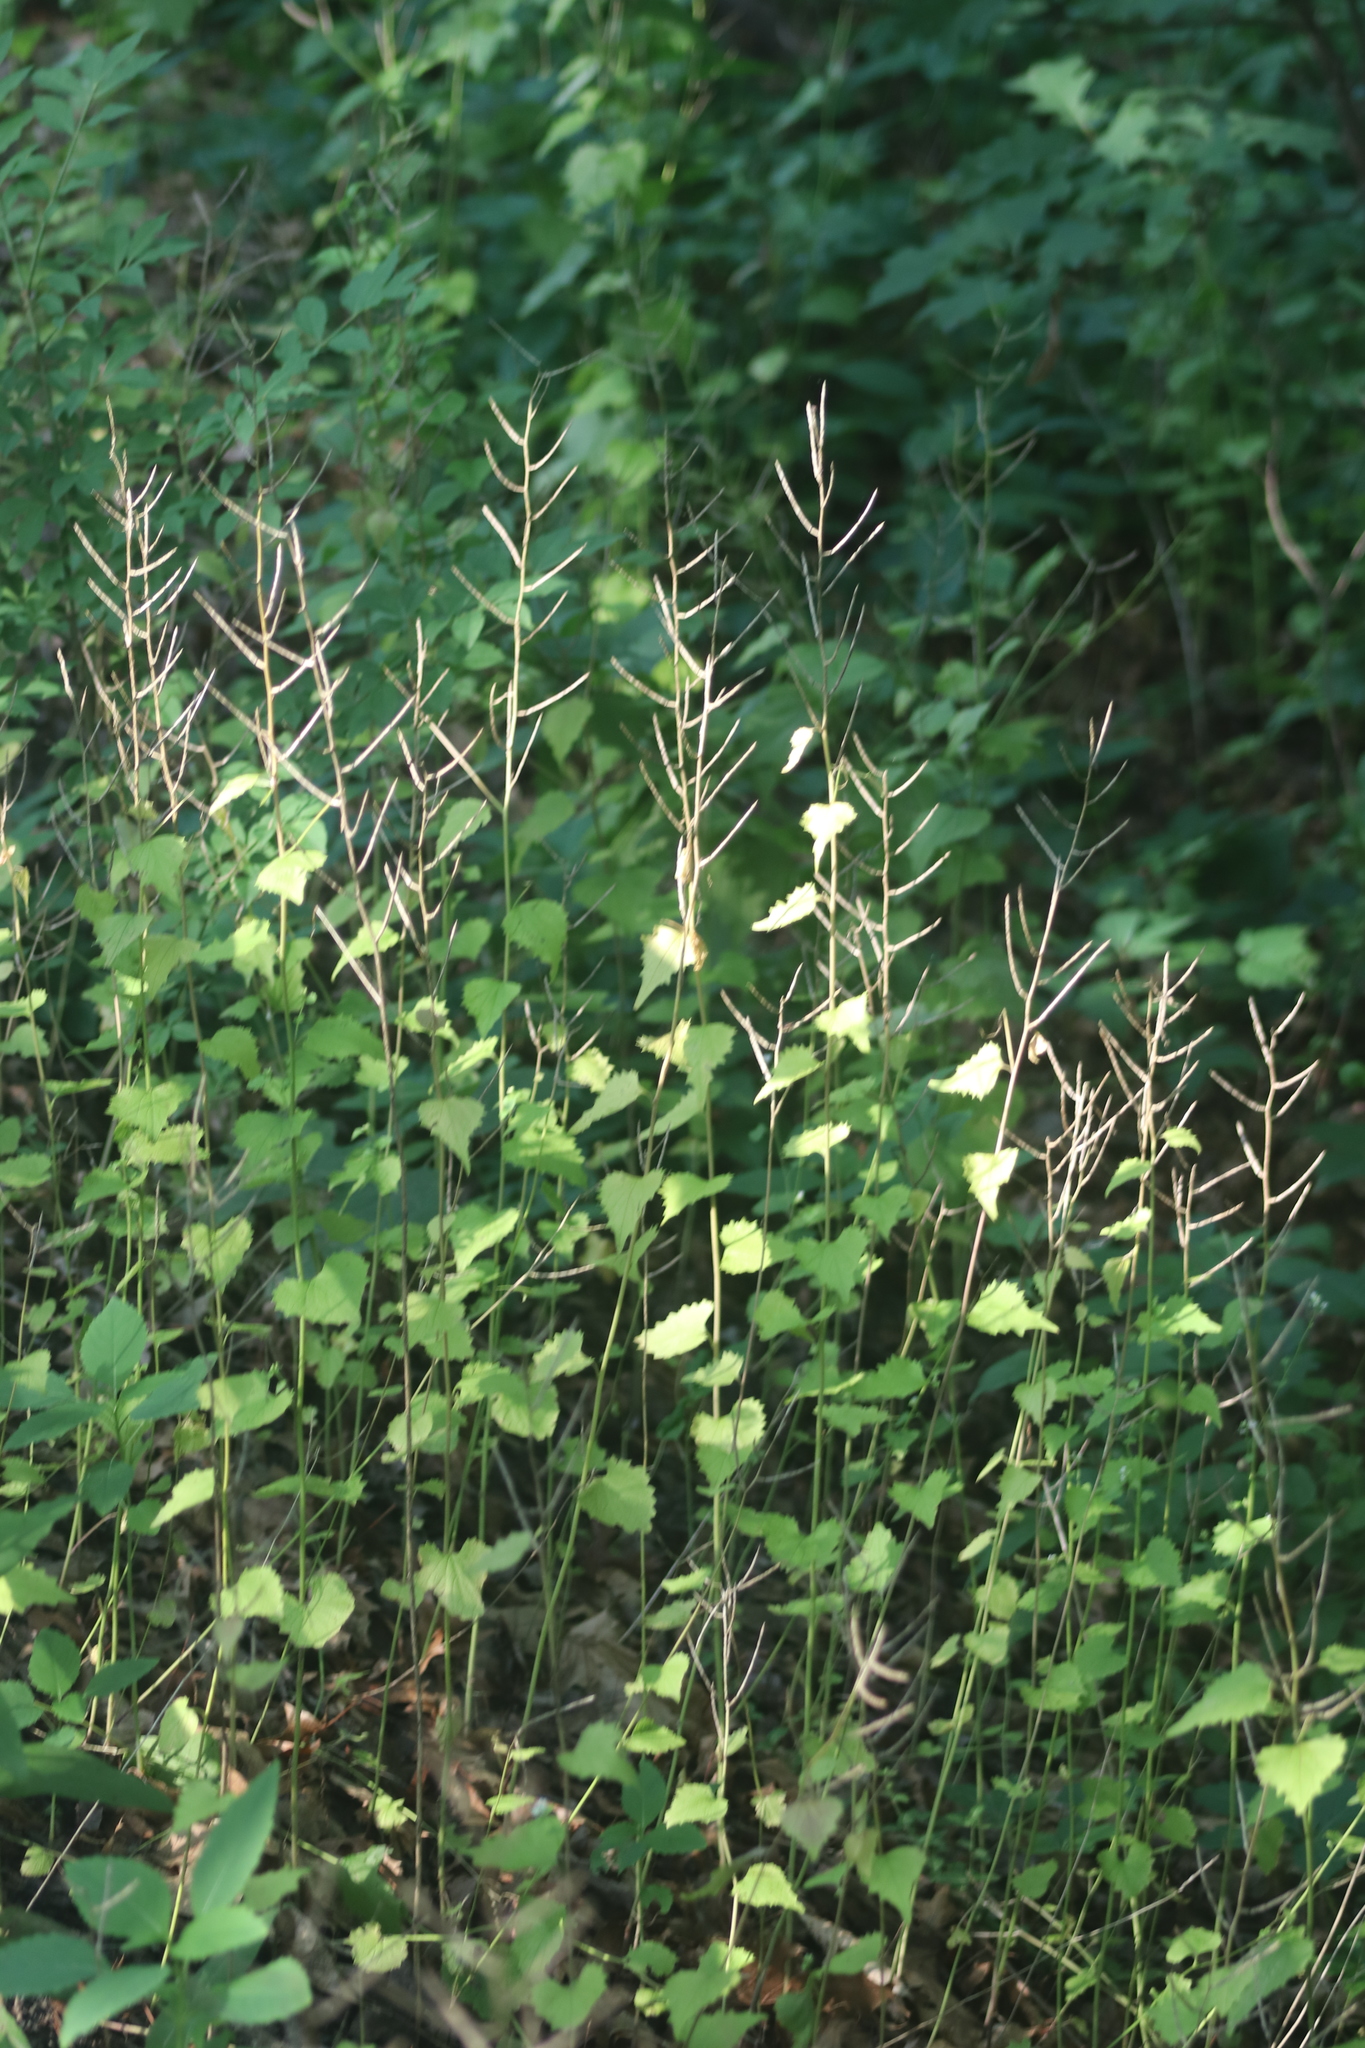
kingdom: Plantae
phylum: Tracheophyta
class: Magnoliopsida
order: Brassicales
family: Brassicaceae
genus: Alliaria
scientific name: Alliaria petiolata
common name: Garlic mustard
